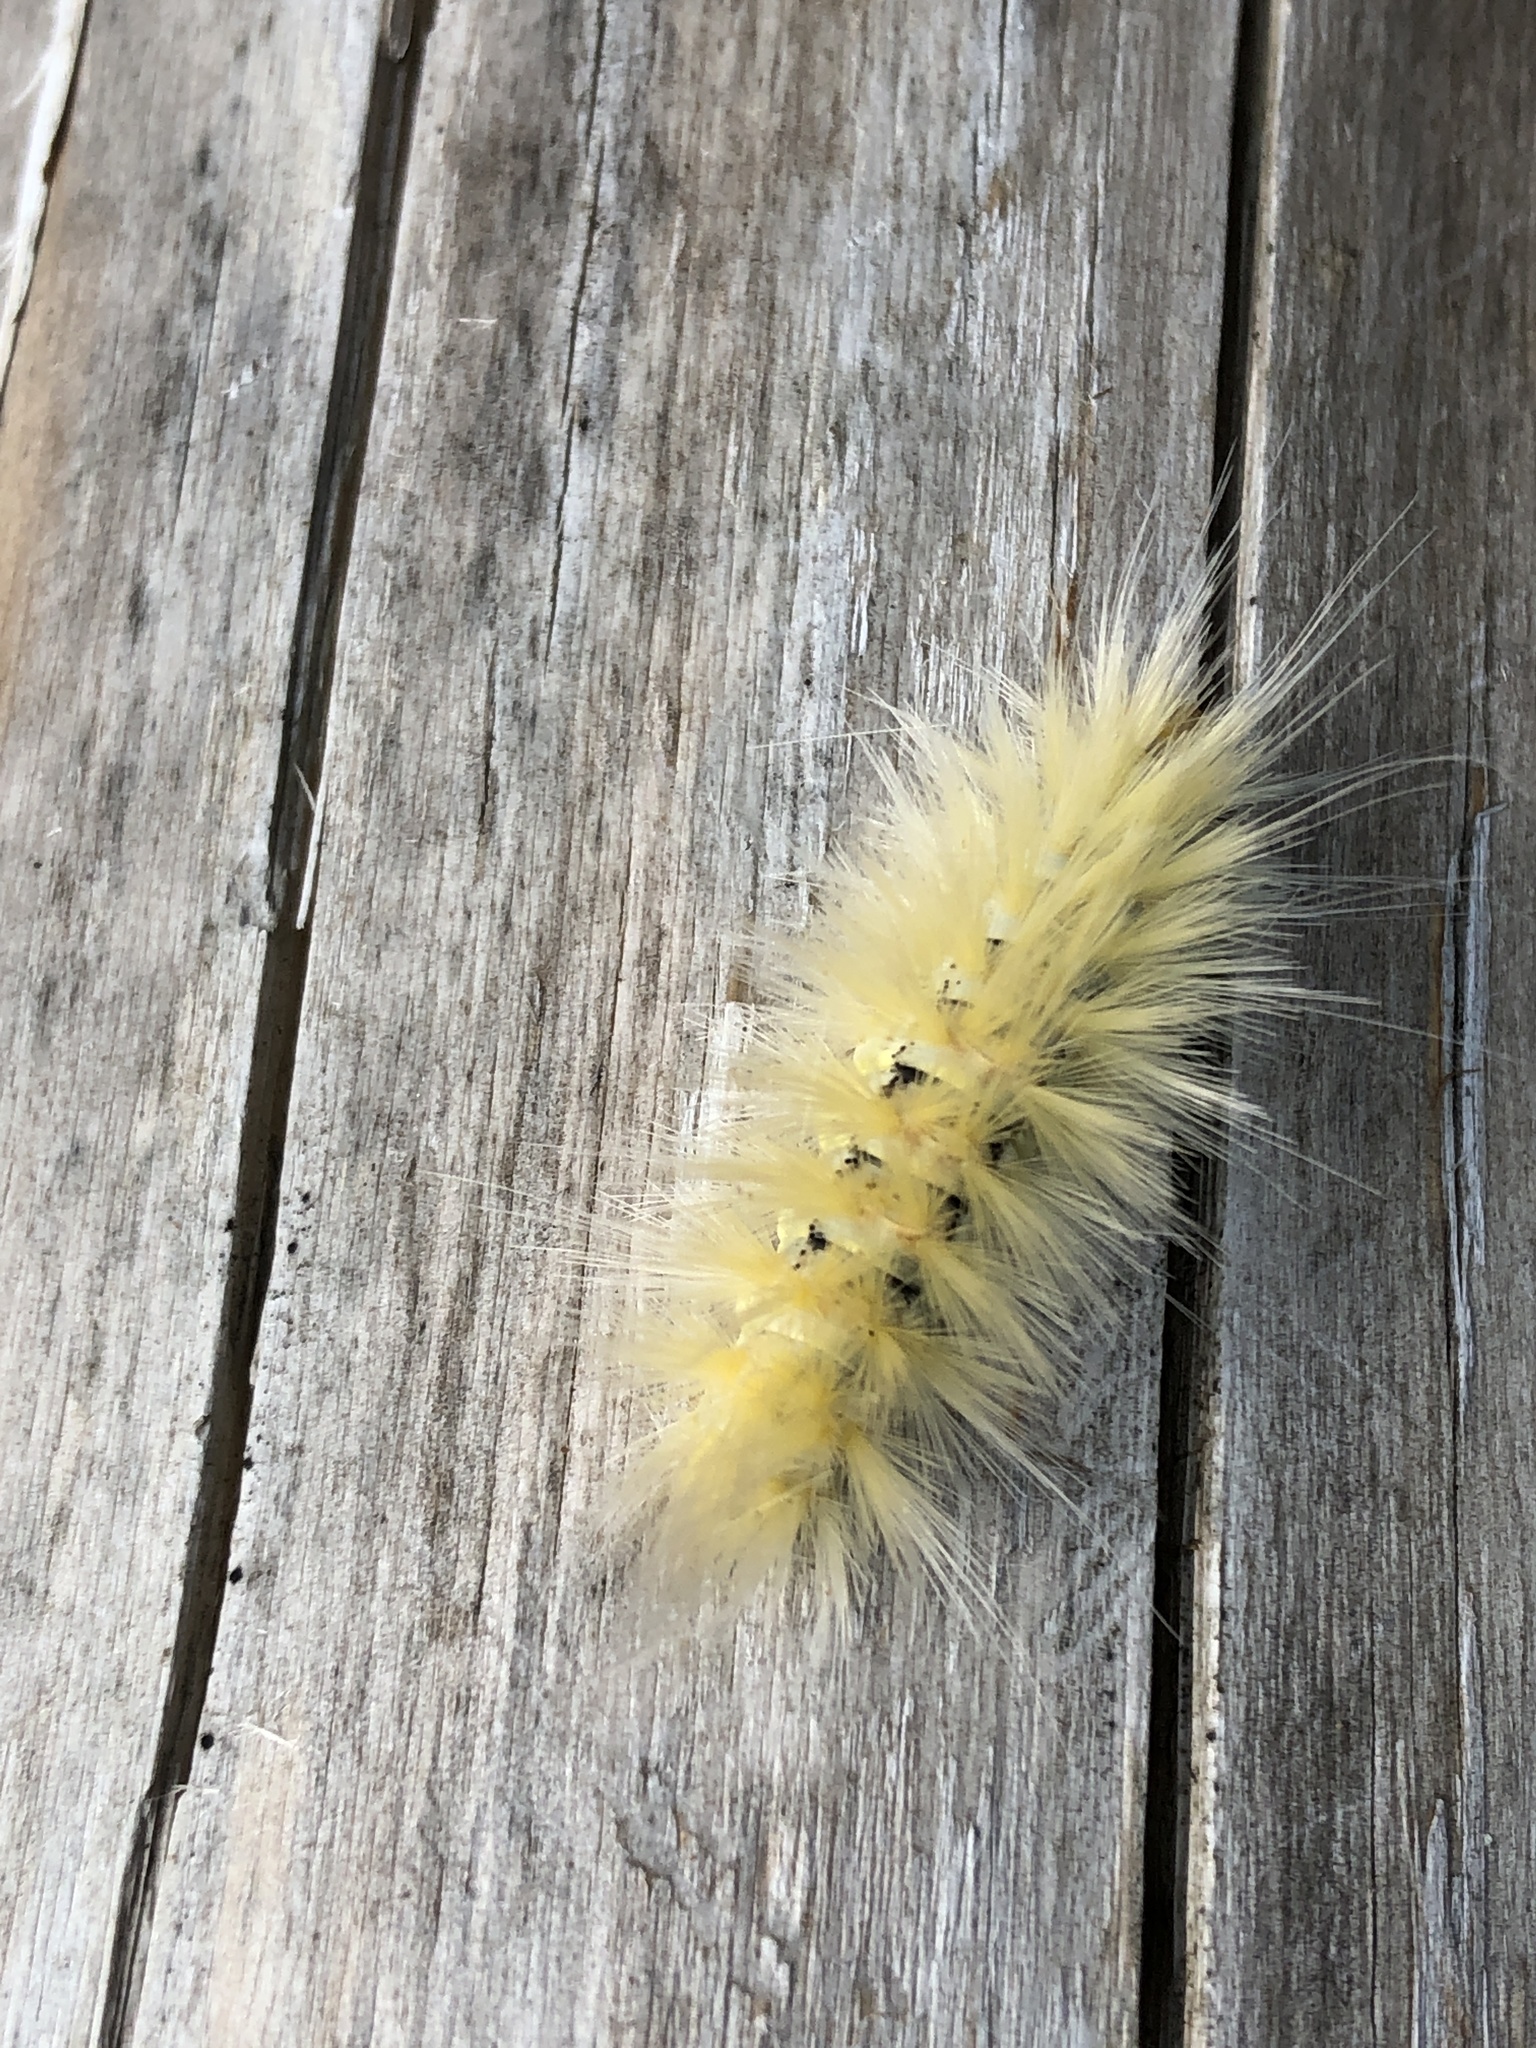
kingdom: Animalia
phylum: Arthropoda
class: Insecta
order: Lepidoptera
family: Erebidae
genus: Spilosoma
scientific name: Spilosoma virginica
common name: Virginia tiger moth
